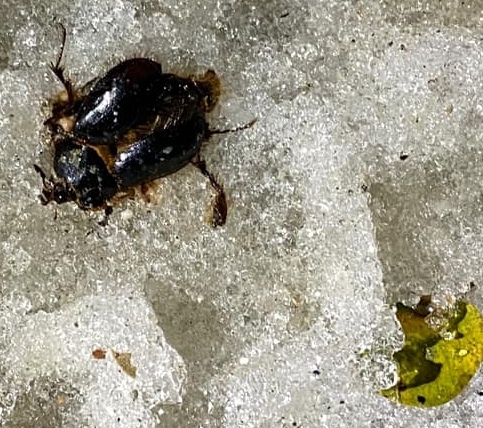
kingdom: Animalia
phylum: Arthropoda
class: Insecta
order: Coleoptera
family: Pleocomidae
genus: Pleocoma
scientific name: Pleocoma australis
